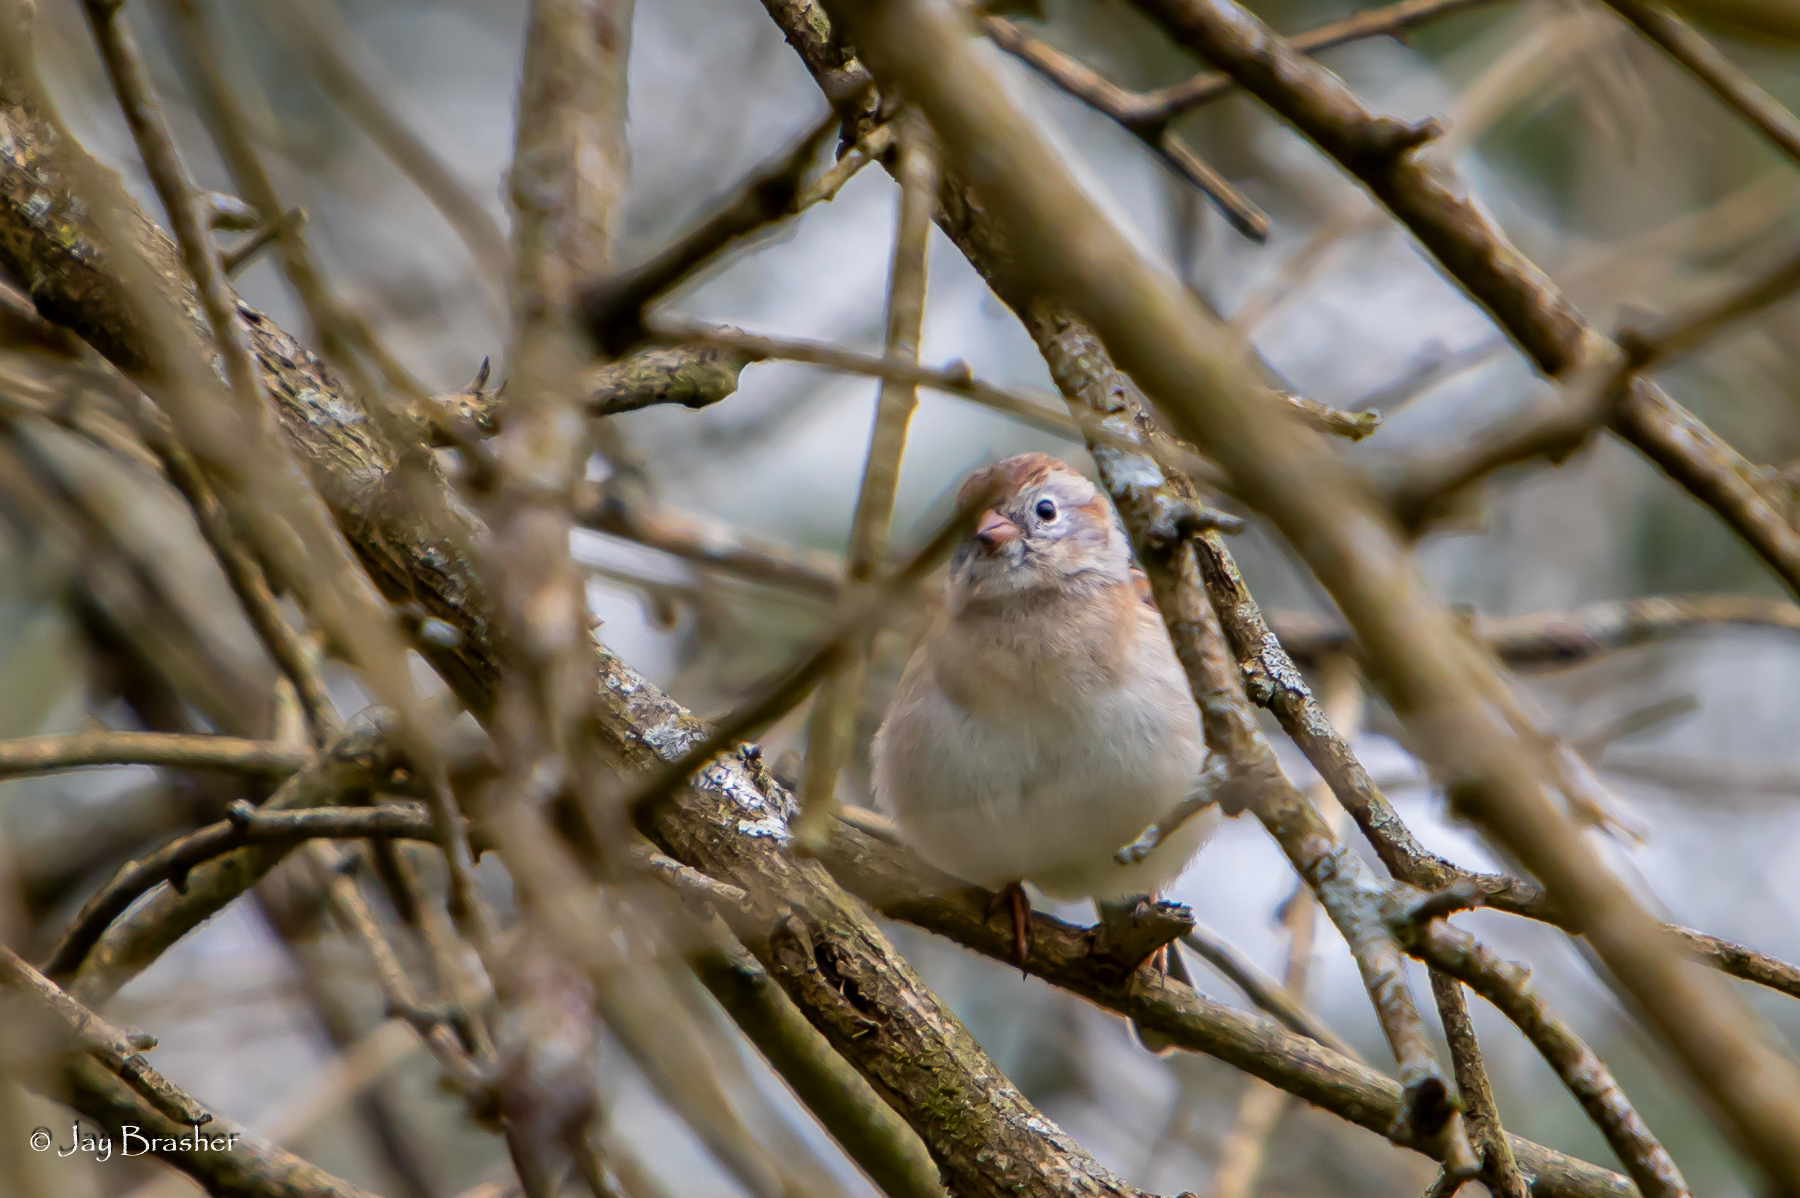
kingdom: Animalia
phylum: Chordata
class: Aves
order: Passeriformes
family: Passerellidae
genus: Spizella
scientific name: Spizella pusilla
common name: Field sparrow
